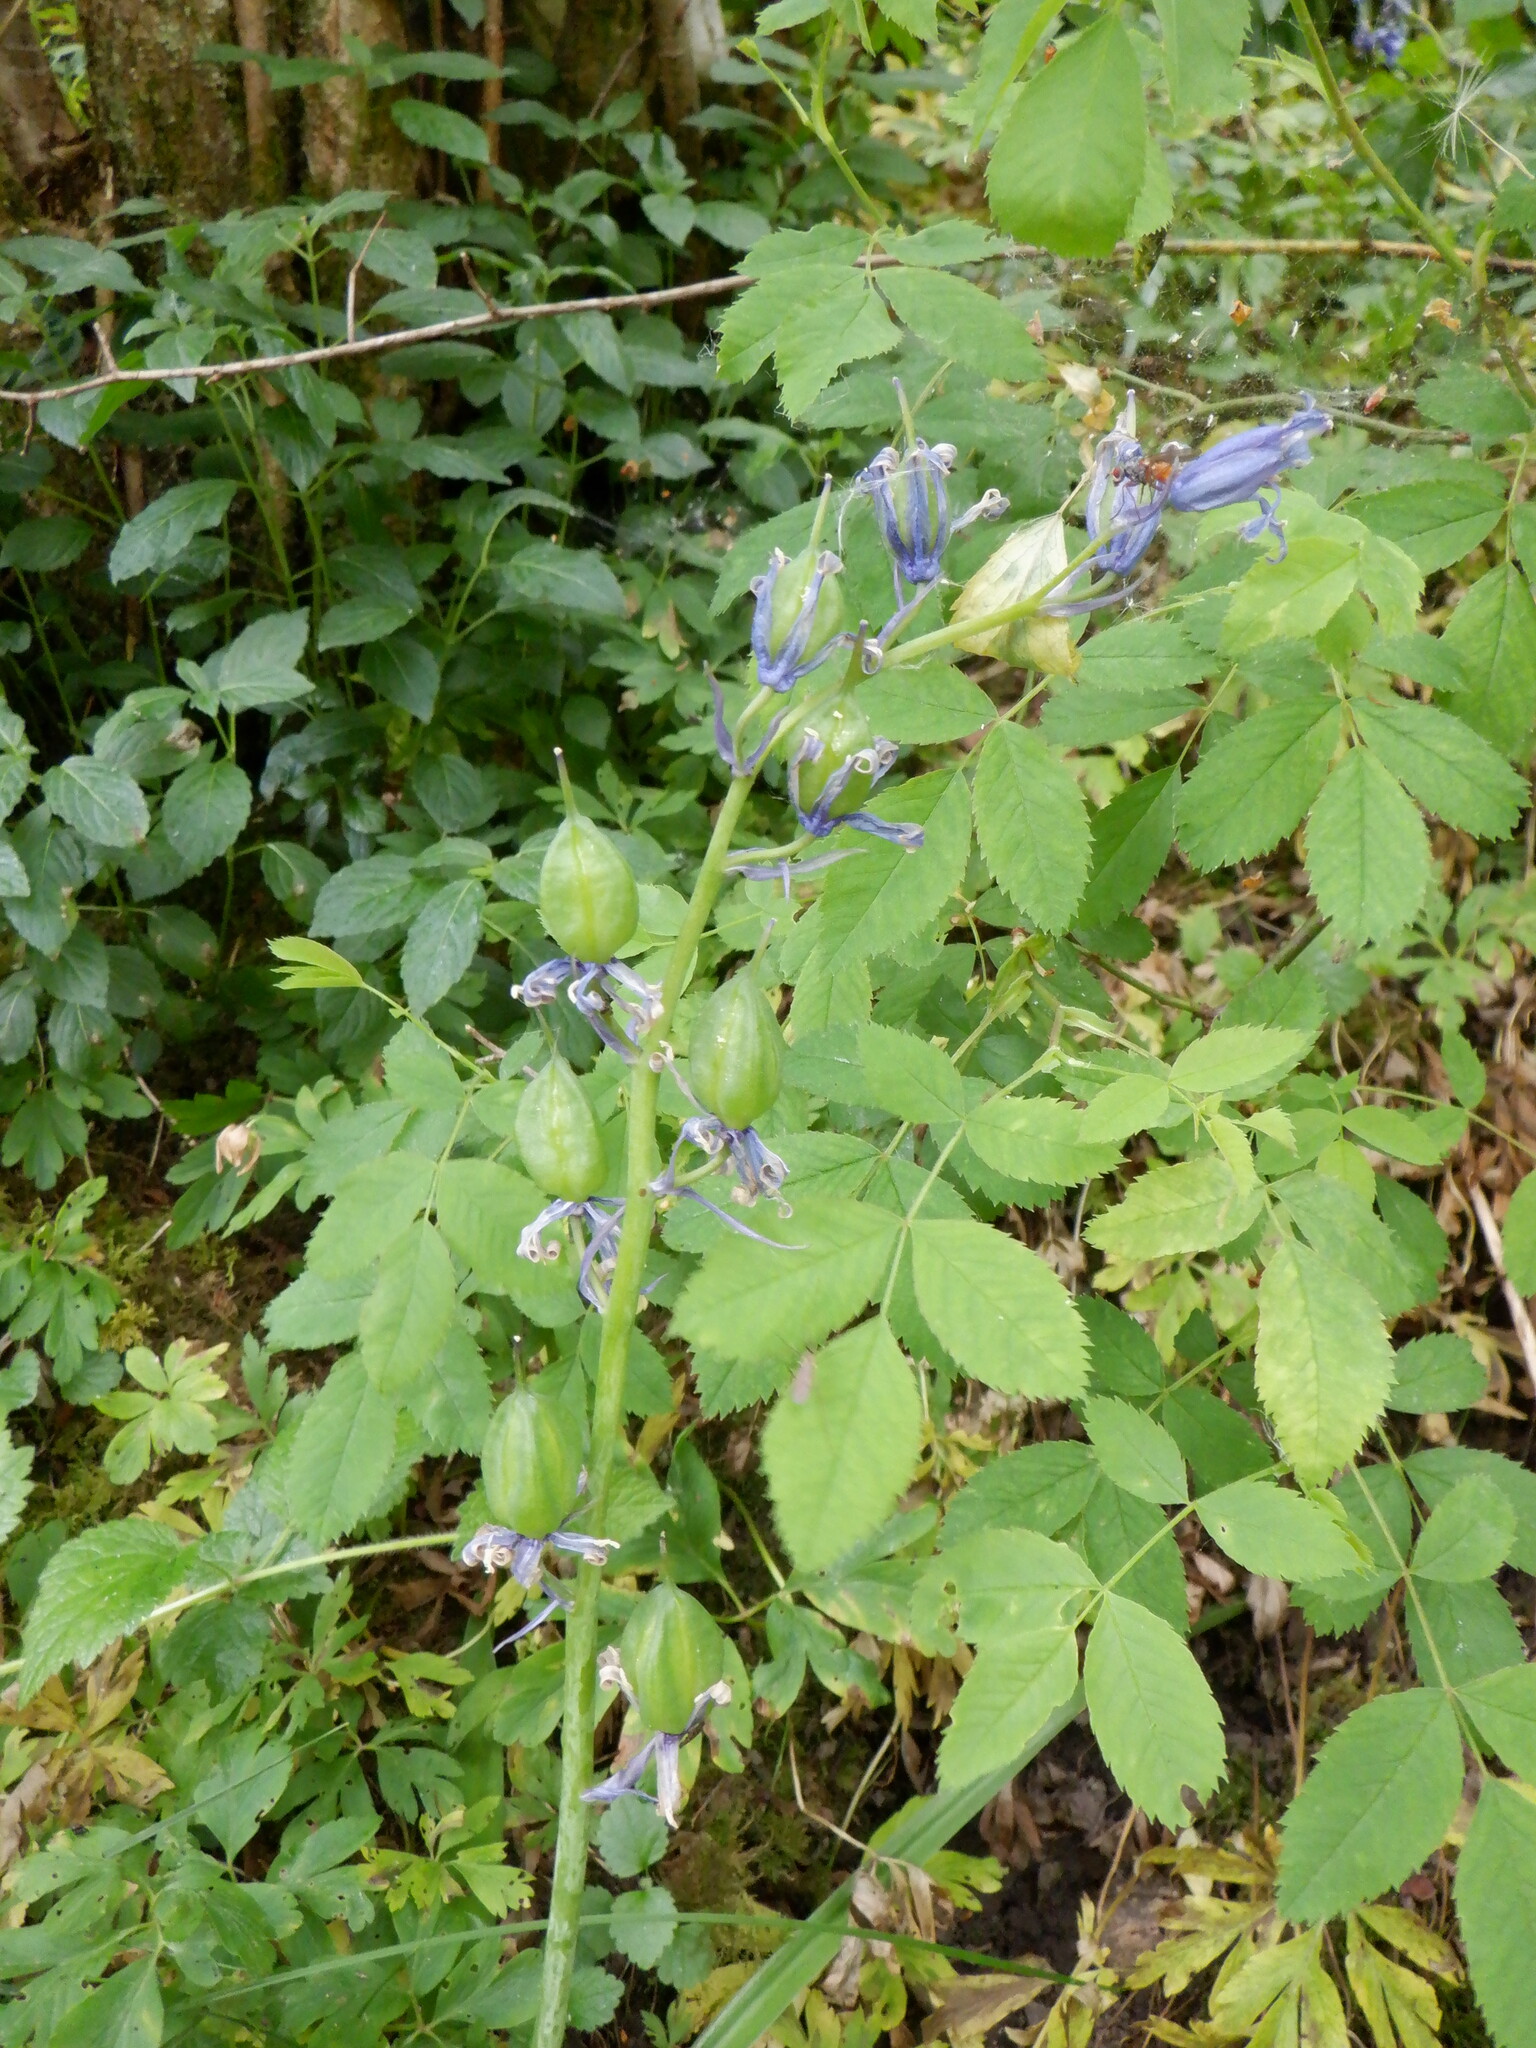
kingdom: Plantae
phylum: Tracheophyta
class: Liliopsida
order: Asparagales
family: Asparagaceae
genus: Hyacinthoides
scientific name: Hyacinthoides non-scripta
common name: Bluebell
